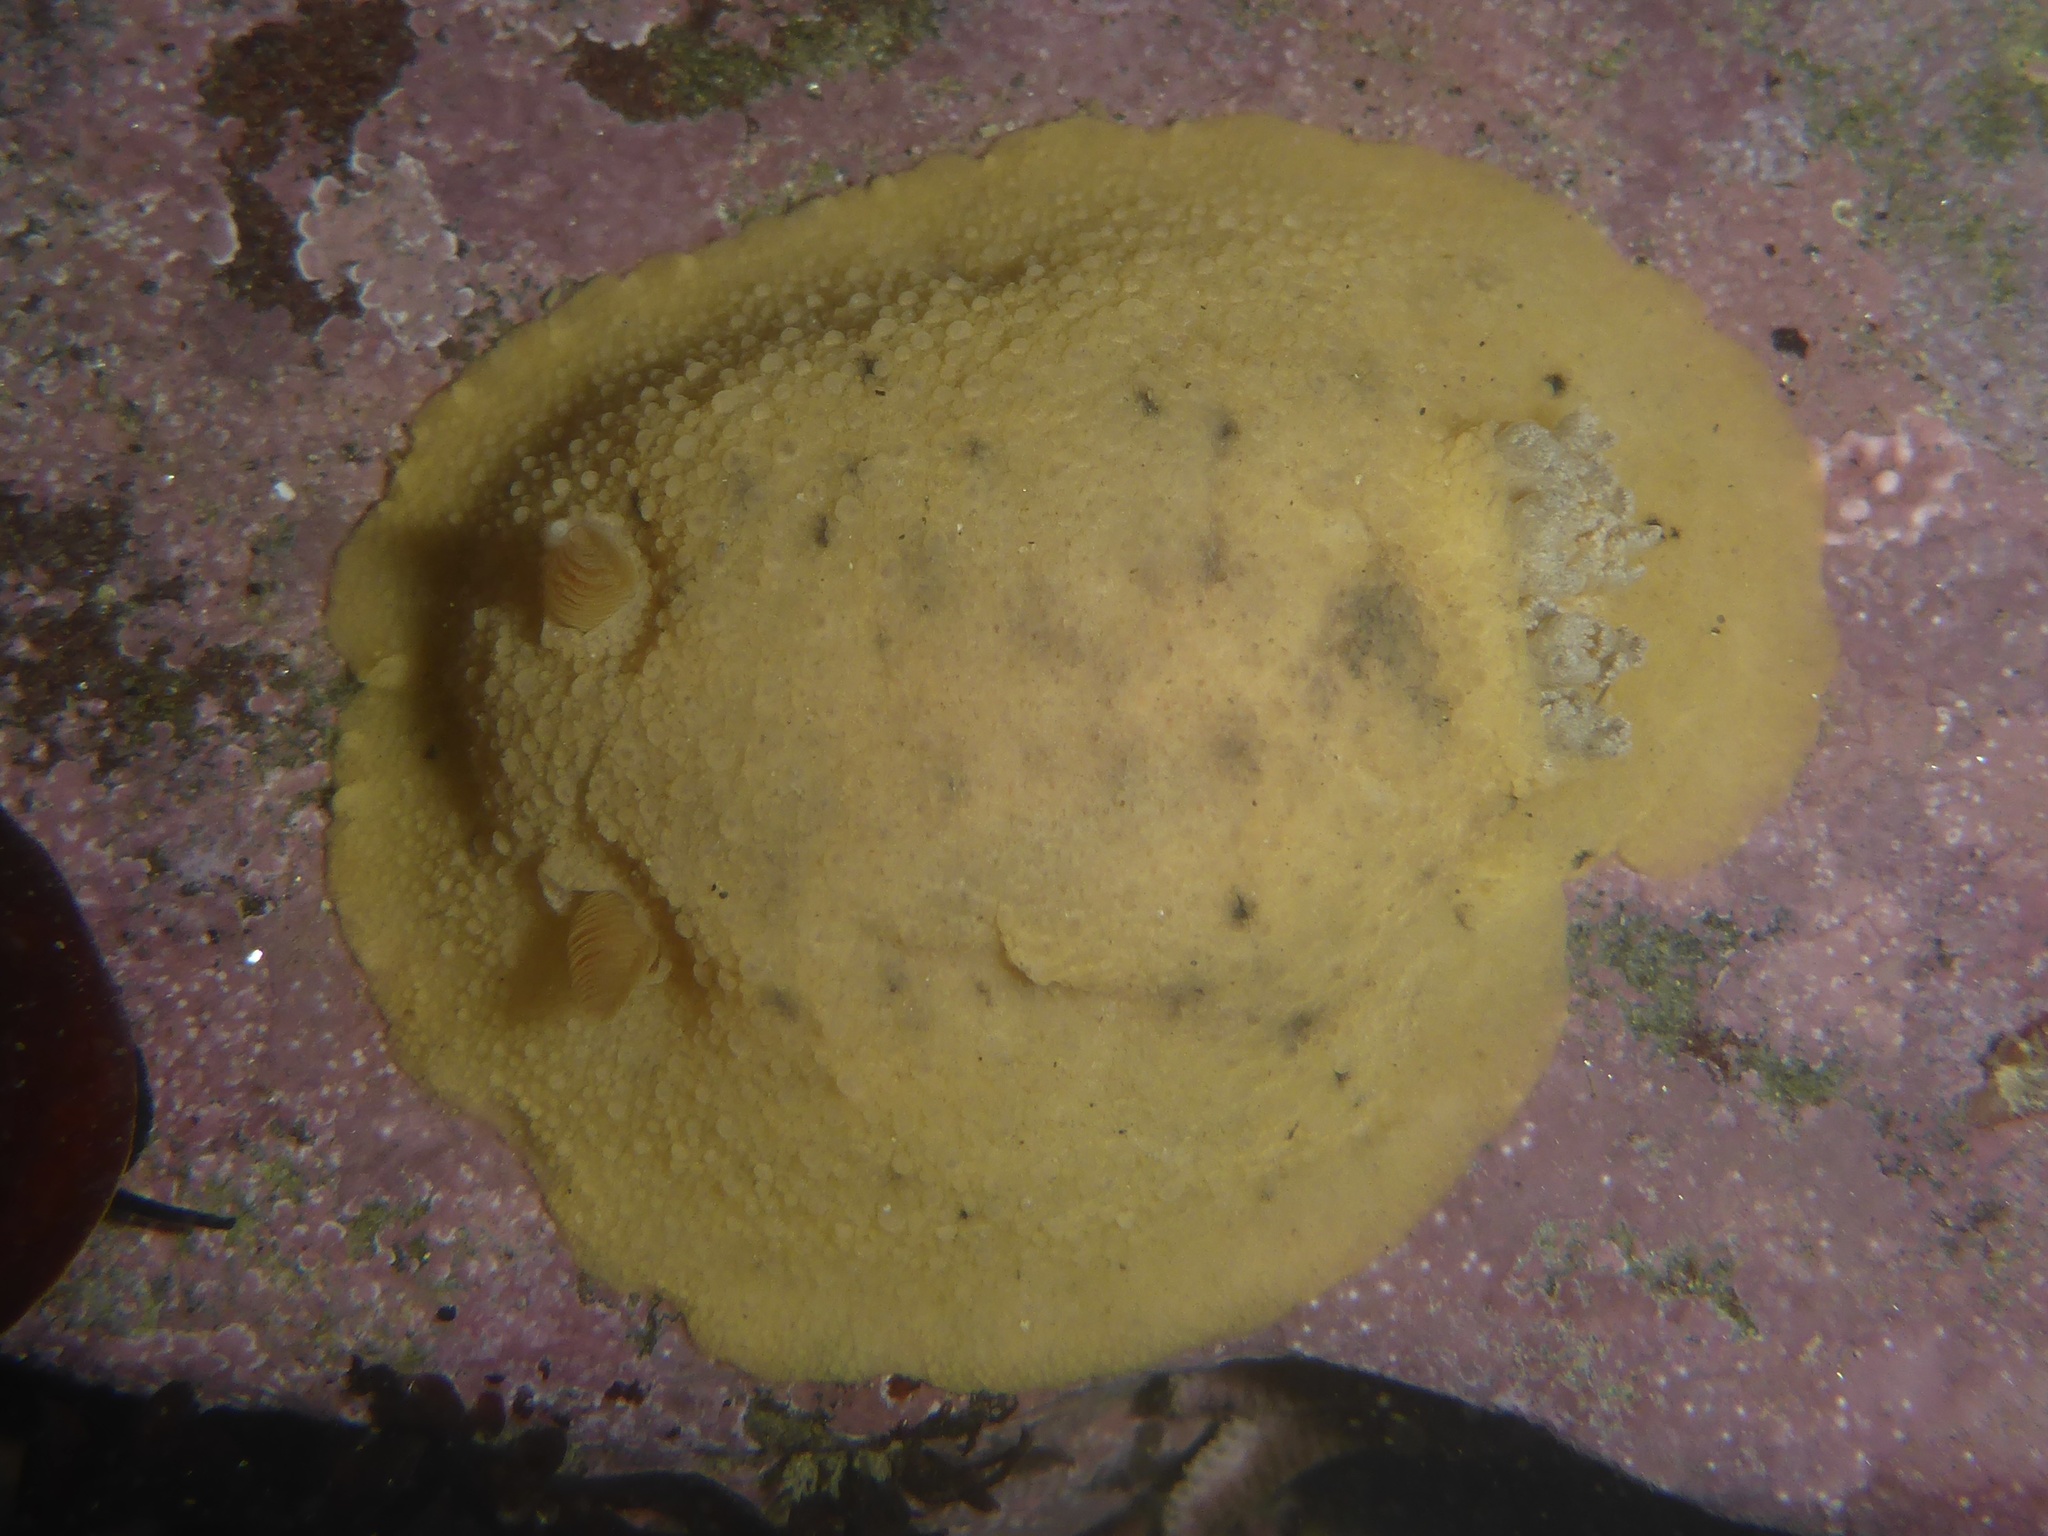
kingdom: Animalia
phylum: Mollusca
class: Gastropoda
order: Nudibranchia
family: Discodorididae
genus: Geitodoris
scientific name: Geitodoris heathi
